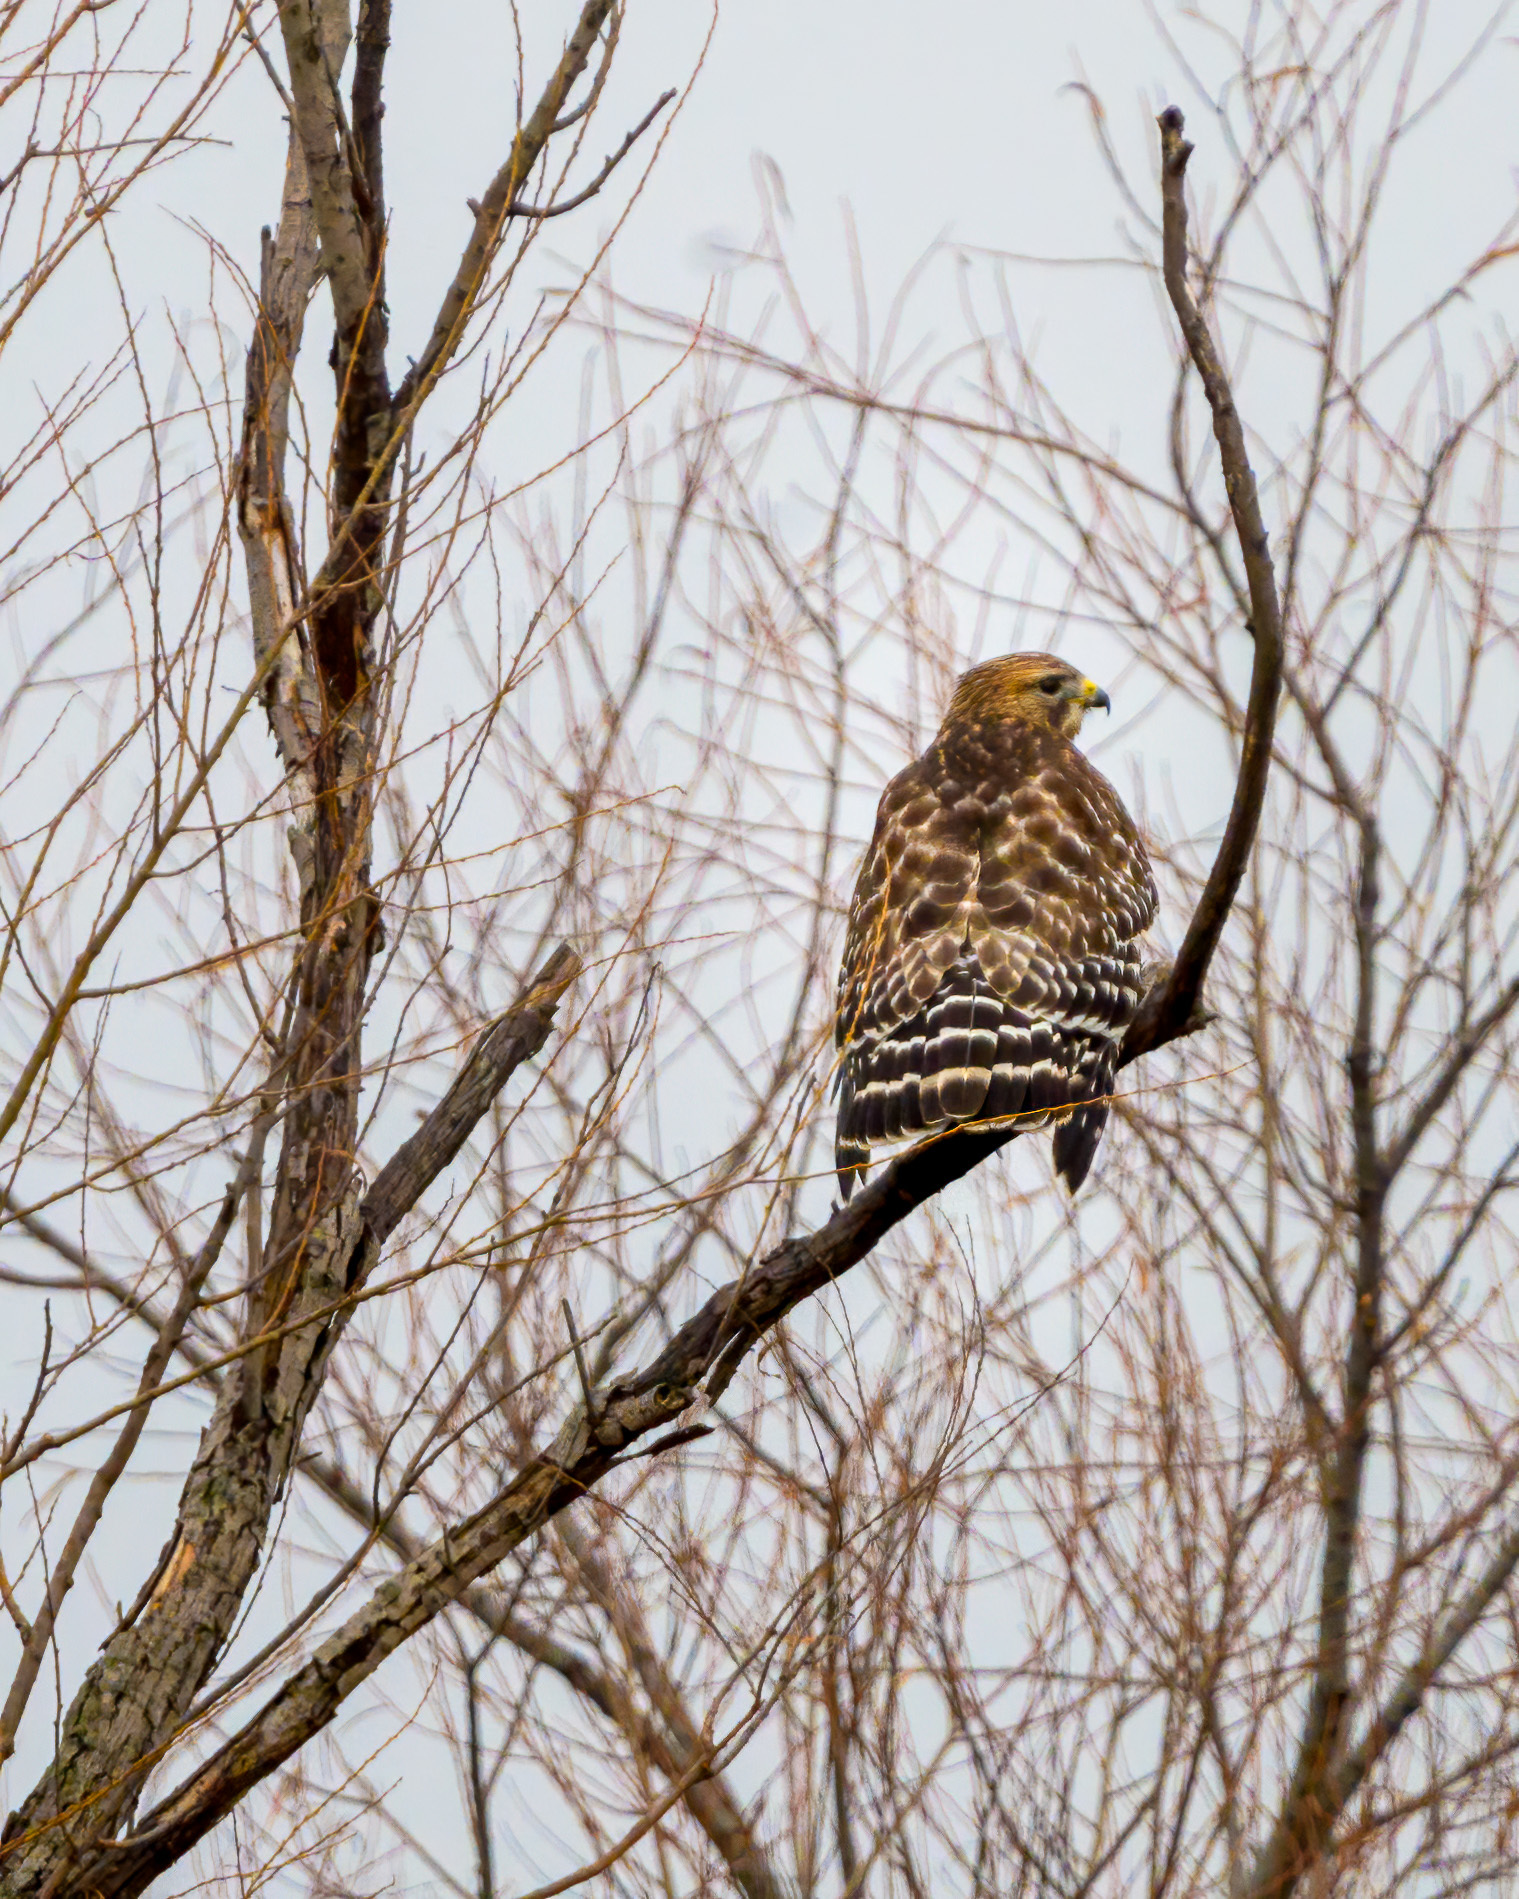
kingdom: Animalia
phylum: Chordata
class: Aves
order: Accipitriformes
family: Accipitridae
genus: Buteo
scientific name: Buteo lineatus
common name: Red-shouldered hawk
